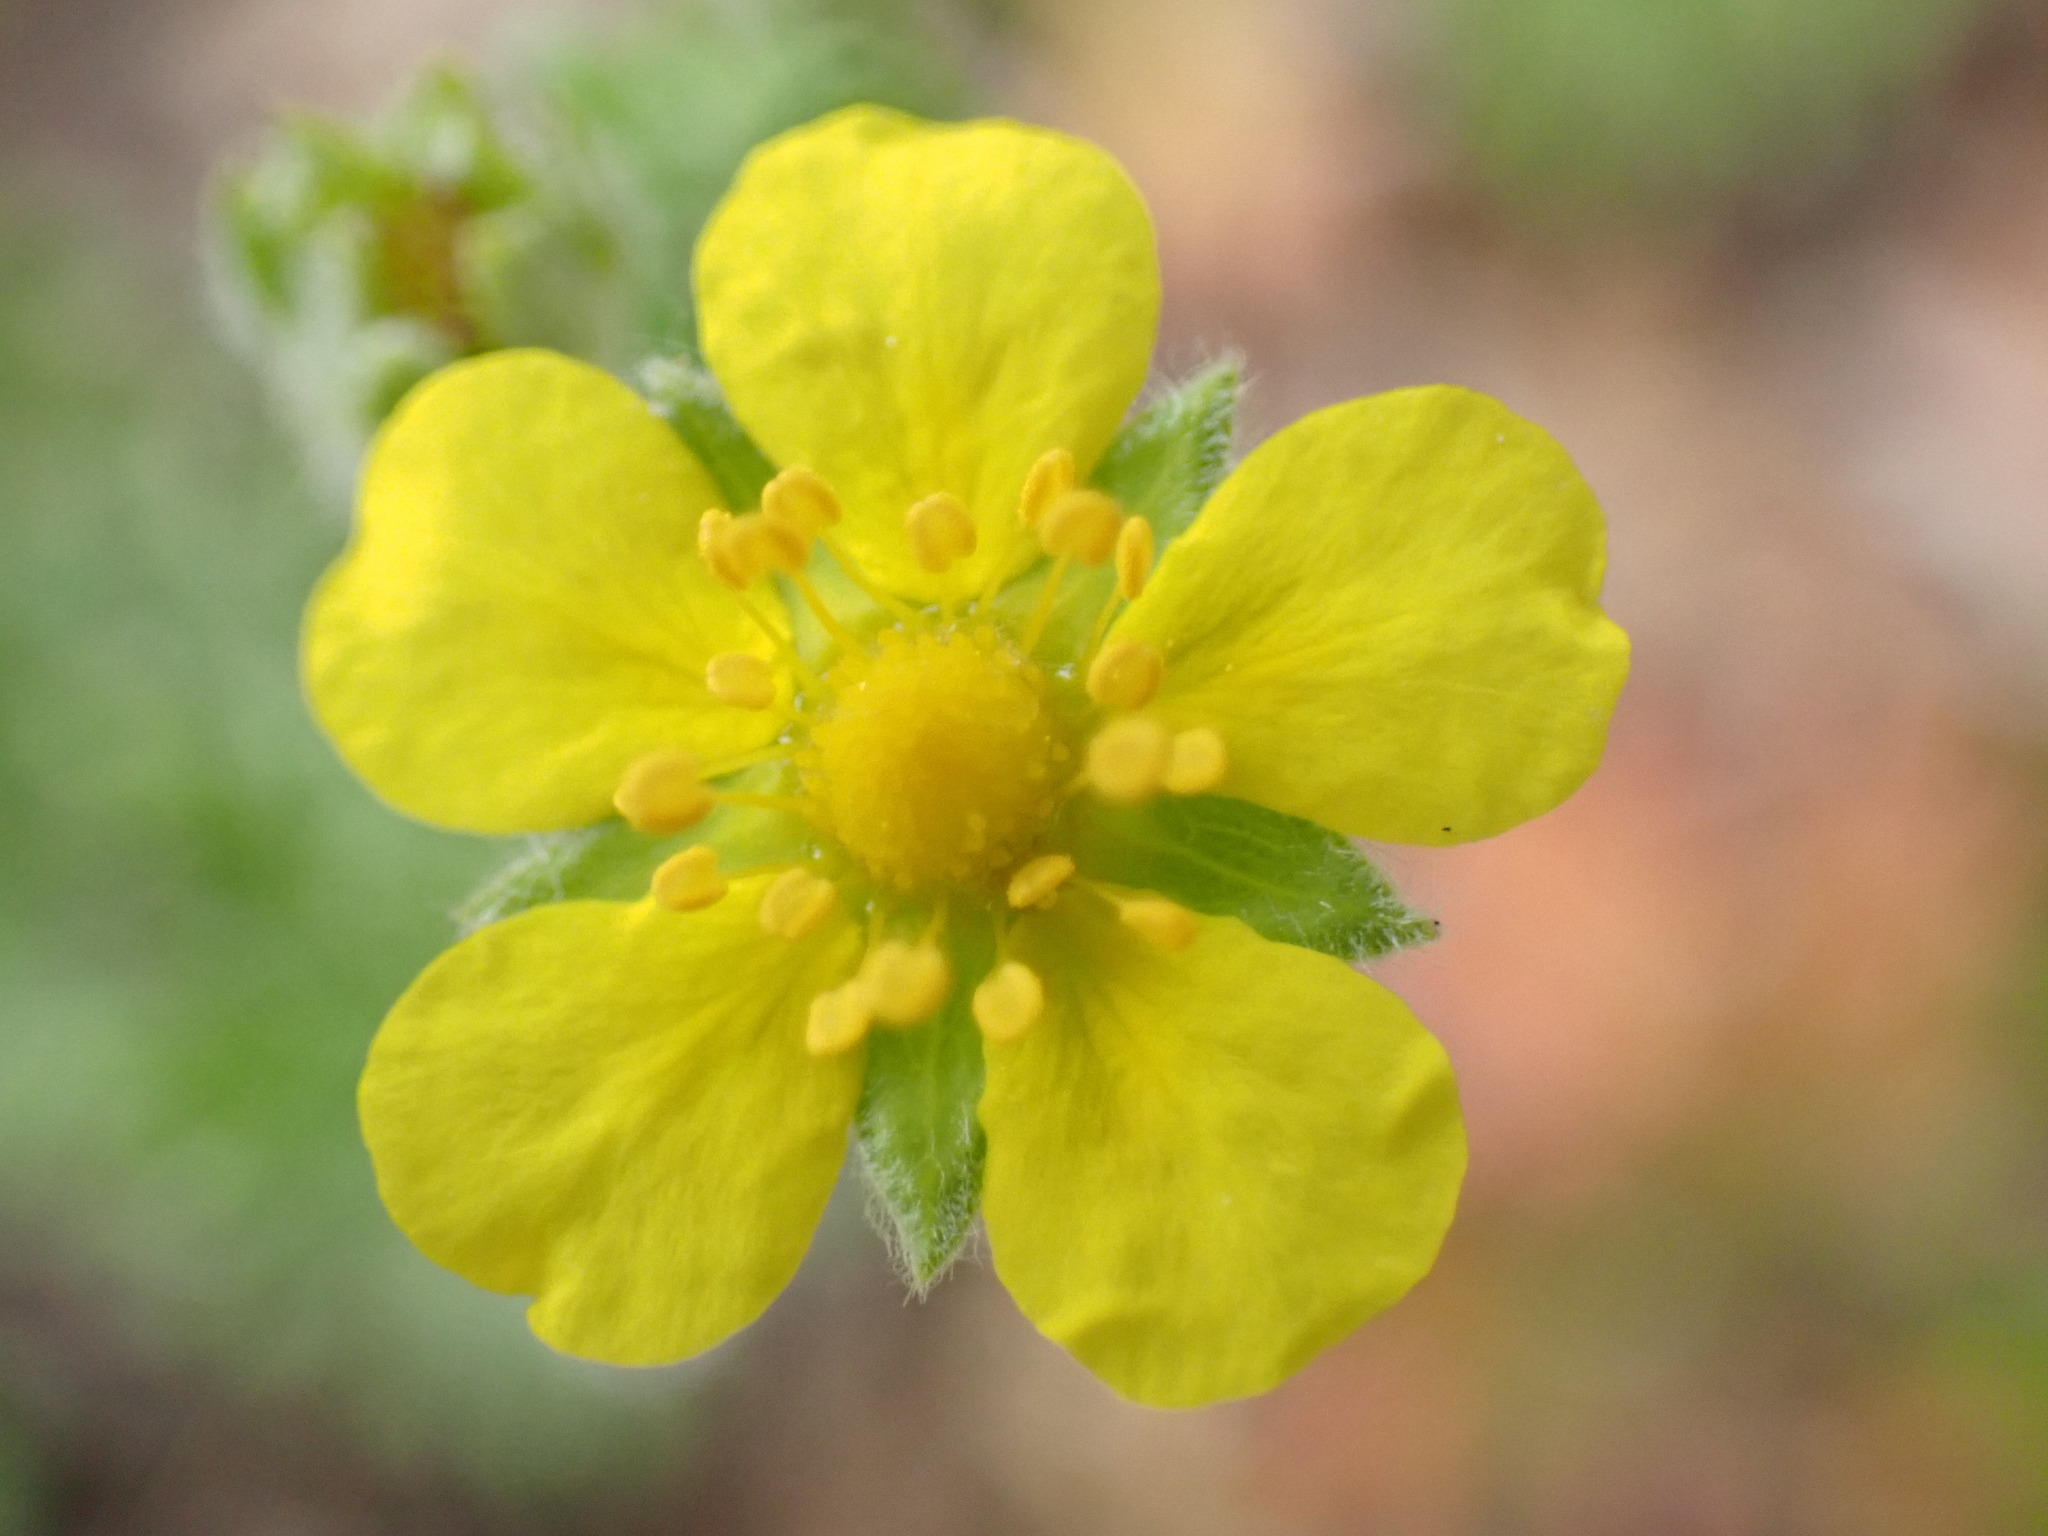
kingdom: Plantae
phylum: Tracheophyta
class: Magnoliopsida
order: Rosales
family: Rosaceae
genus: Potentilla
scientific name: Potentilla argentea
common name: Hoary cinquefoil
